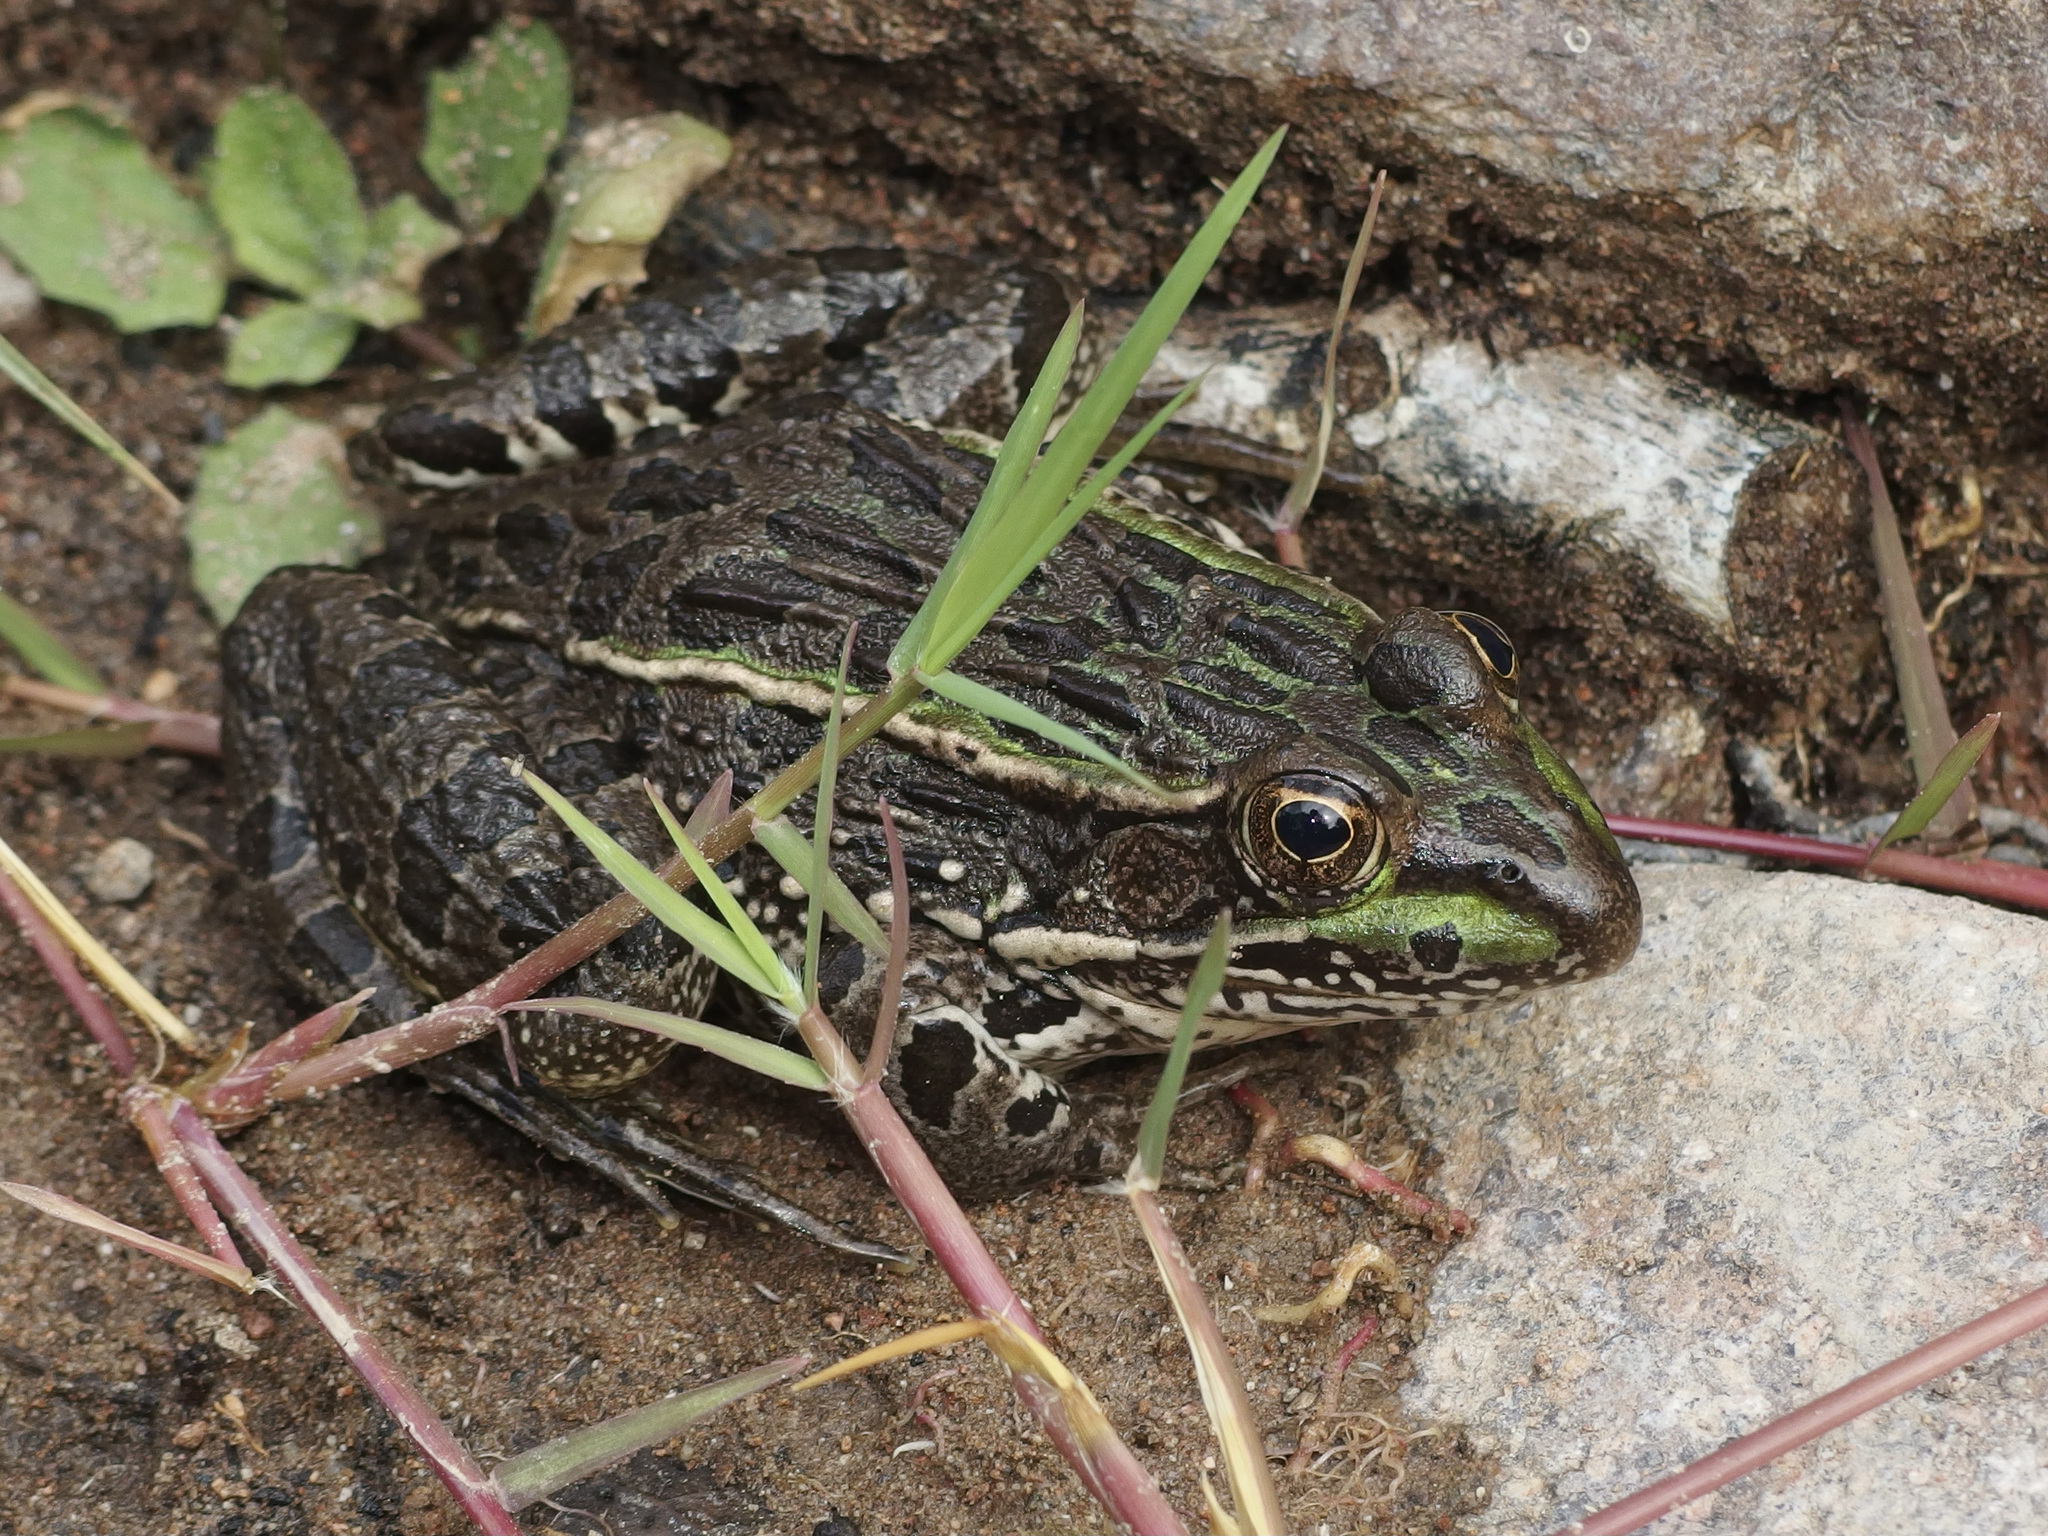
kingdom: Animalia
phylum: Chordata
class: Amphibia
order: Anura
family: Ranidae
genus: Lithobates
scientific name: Lithobates chiricahuensis
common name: Chiricahua leopard frog
